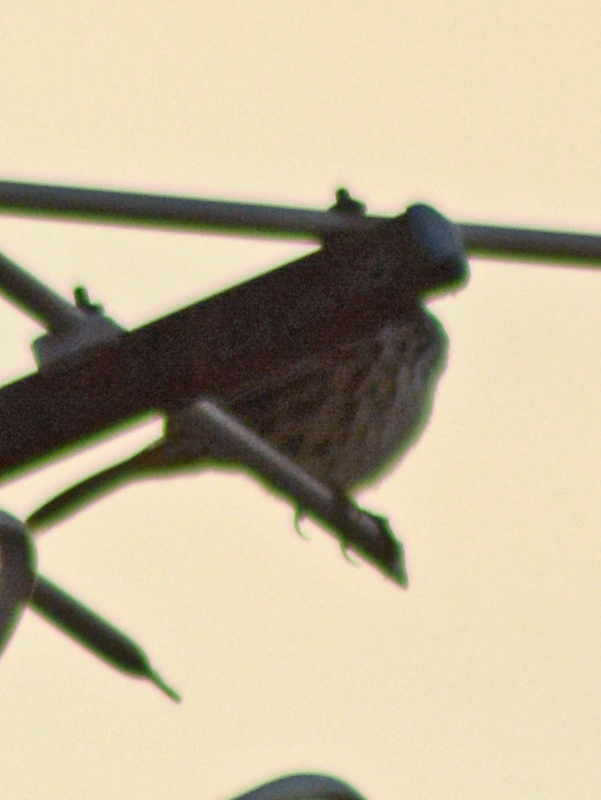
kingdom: Animalia
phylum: Chordata
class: Aves
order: Passeriformes
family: Fringillidae
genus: Haemorhous
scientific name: Haemorhous mexicanus
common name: House finch
